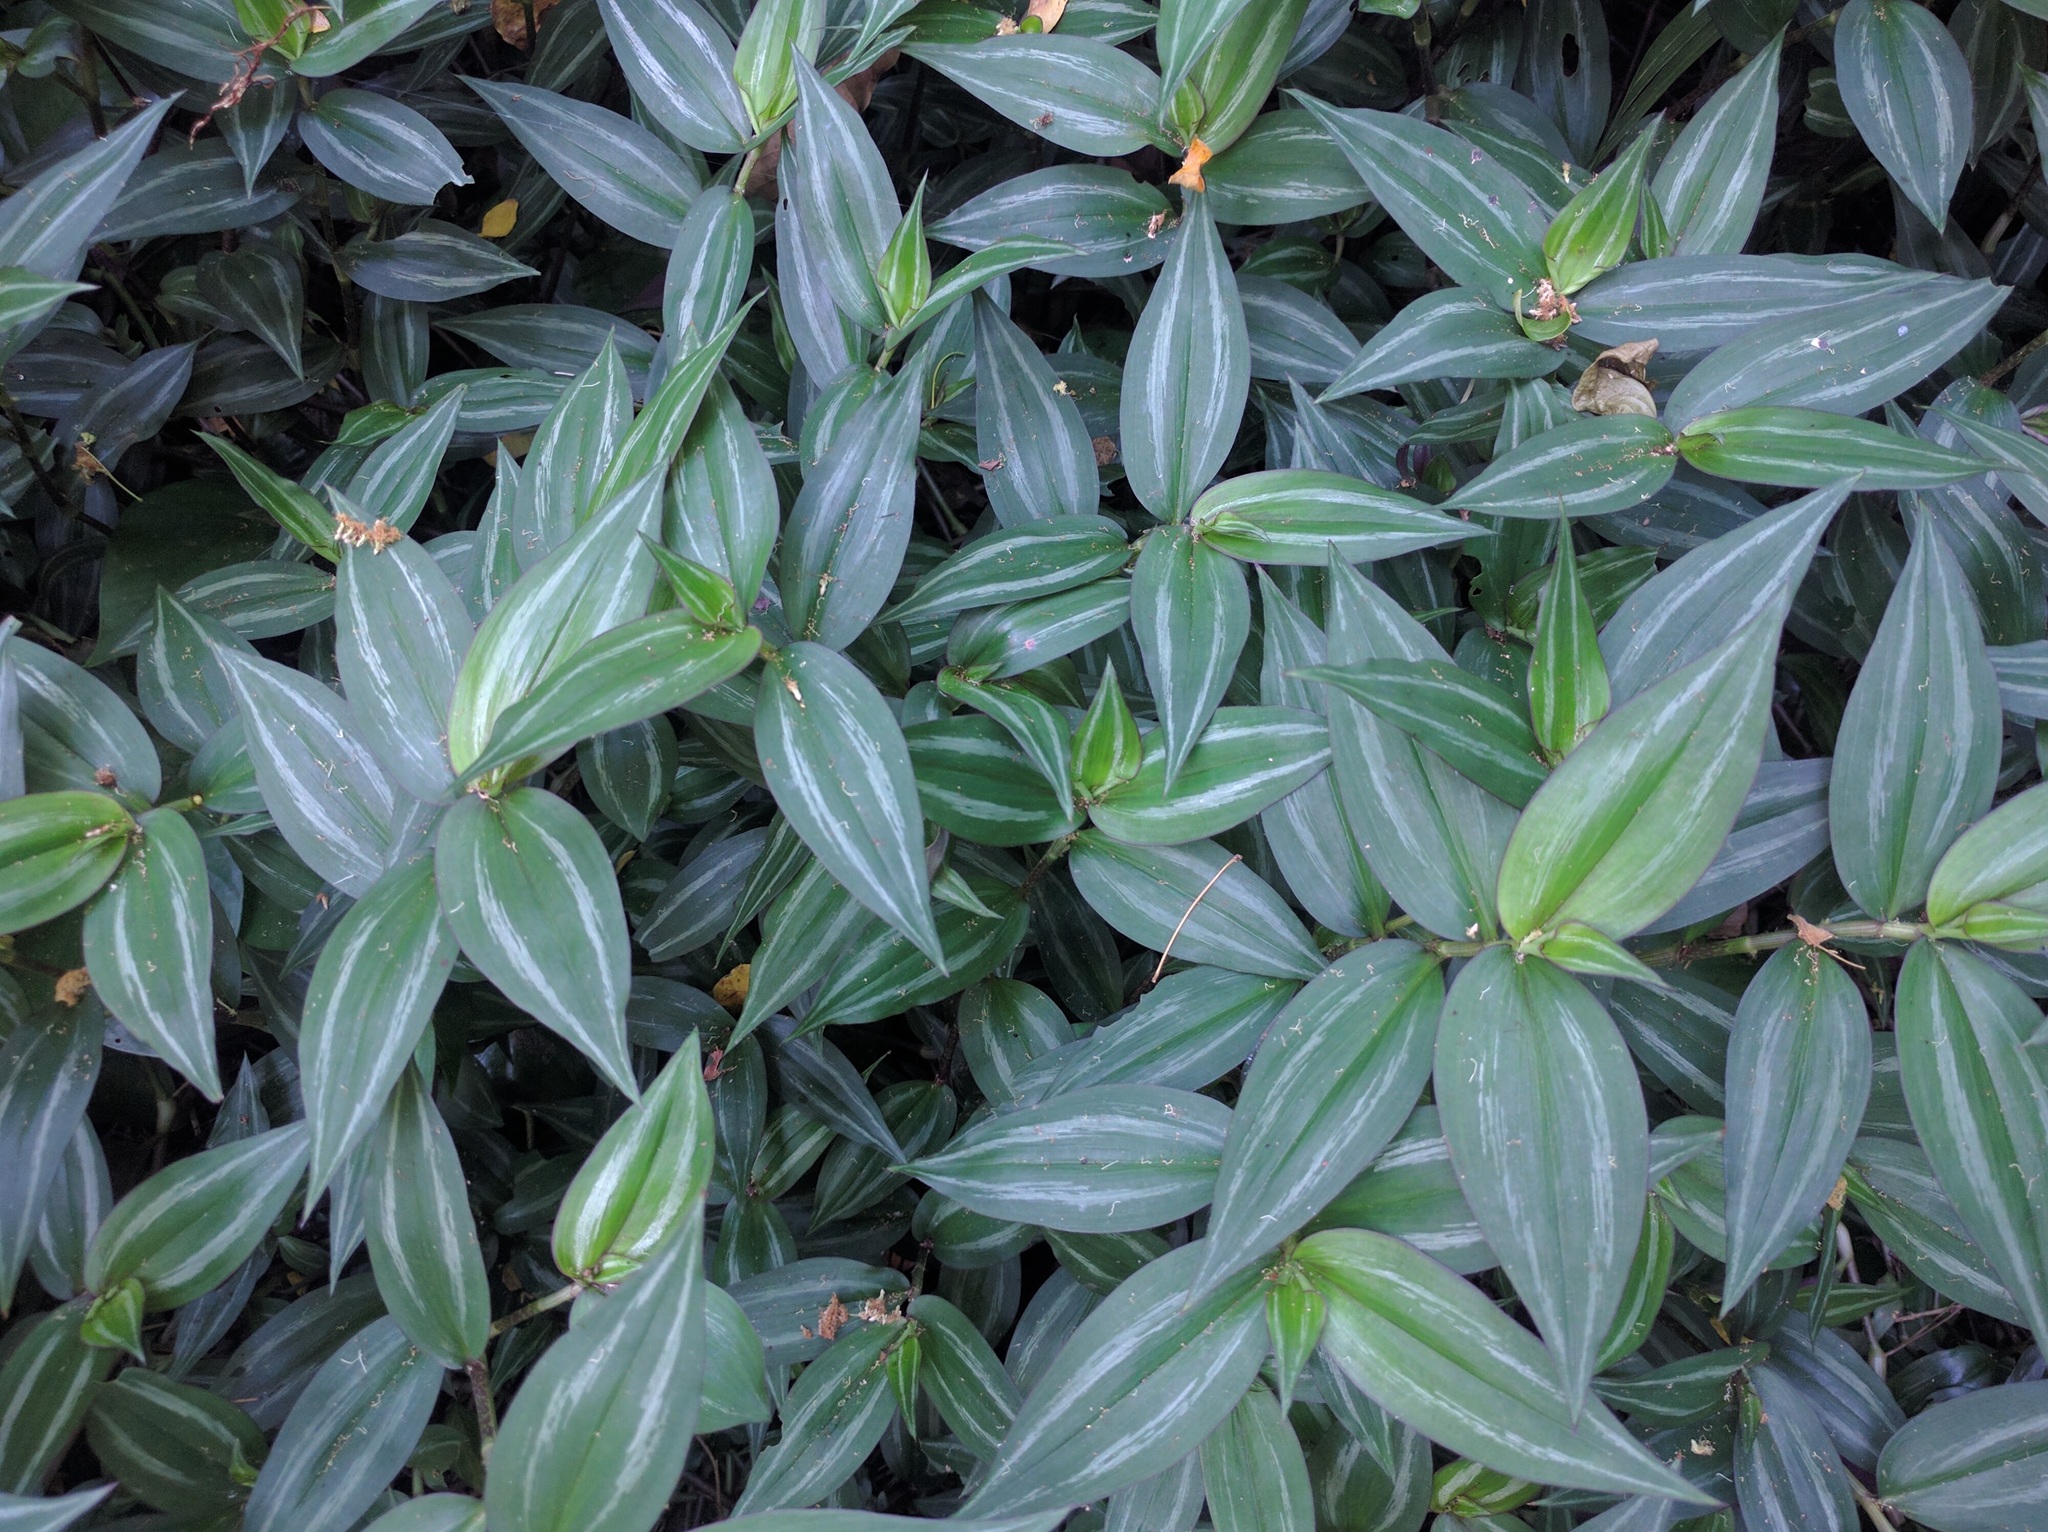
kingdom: Plantae
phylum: Tracheophyta
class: Liliopsida
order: Commelinales
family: Commelinaceae
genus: Tradescantia
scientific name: Tradescantia zebrina
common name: Inchplant
